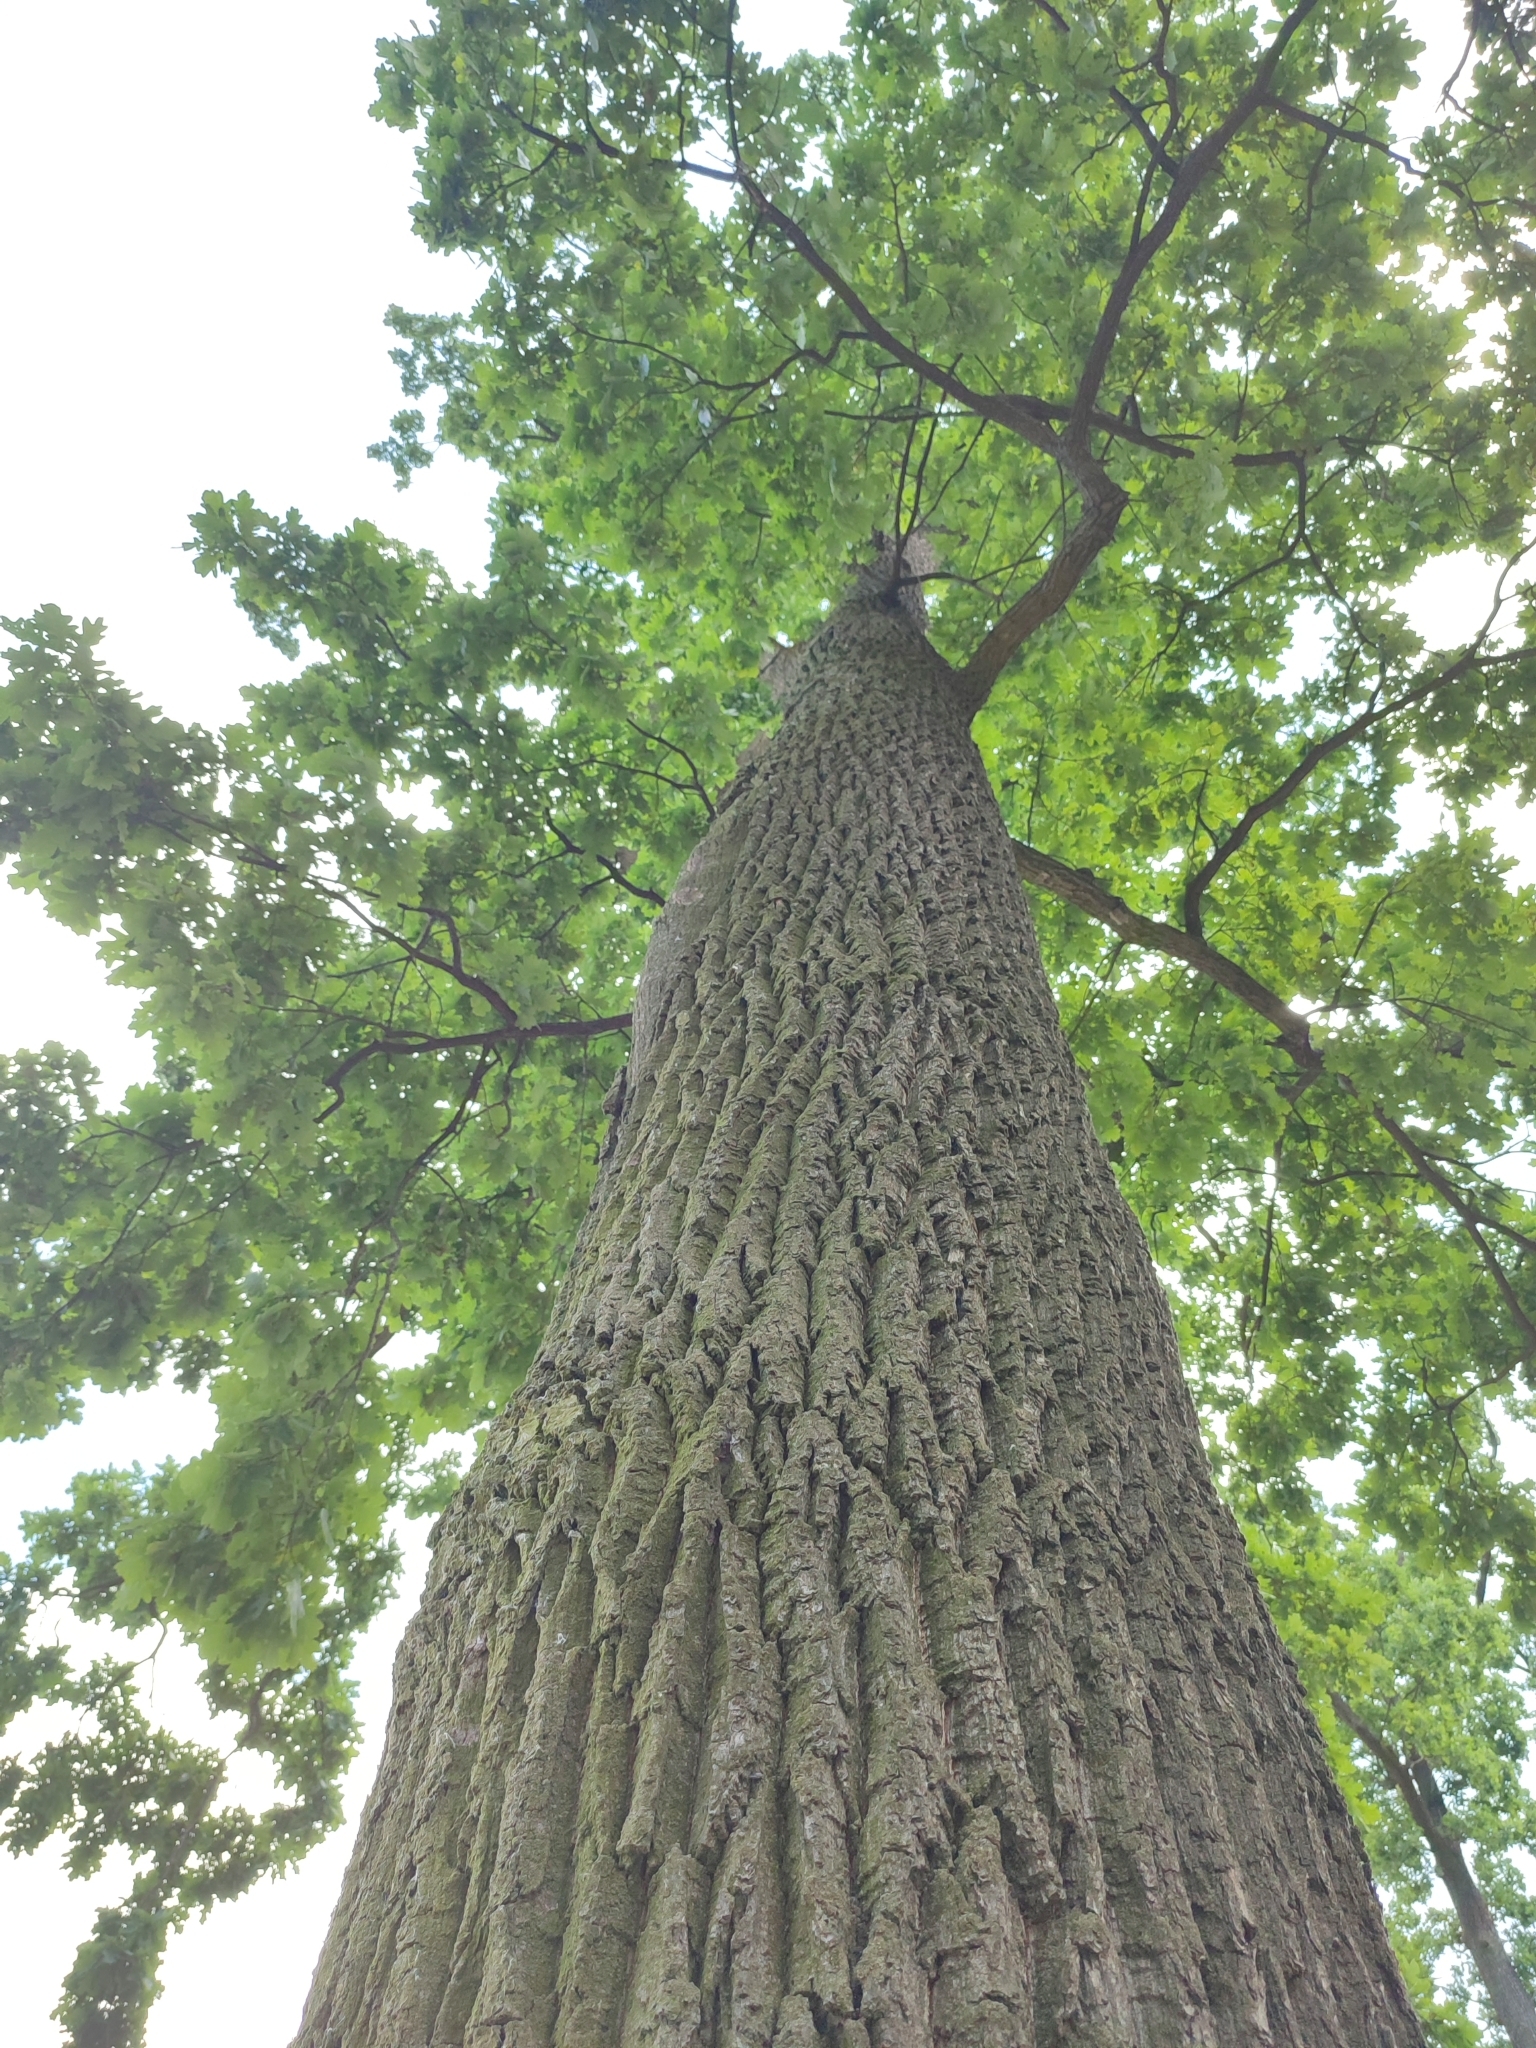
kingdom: Plantae
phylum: Tracheophyta
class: Magnoliopsida
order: Fagales
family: Fagaceae
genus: Quercus
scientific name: Quercus robur
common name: Pedunculate oak
